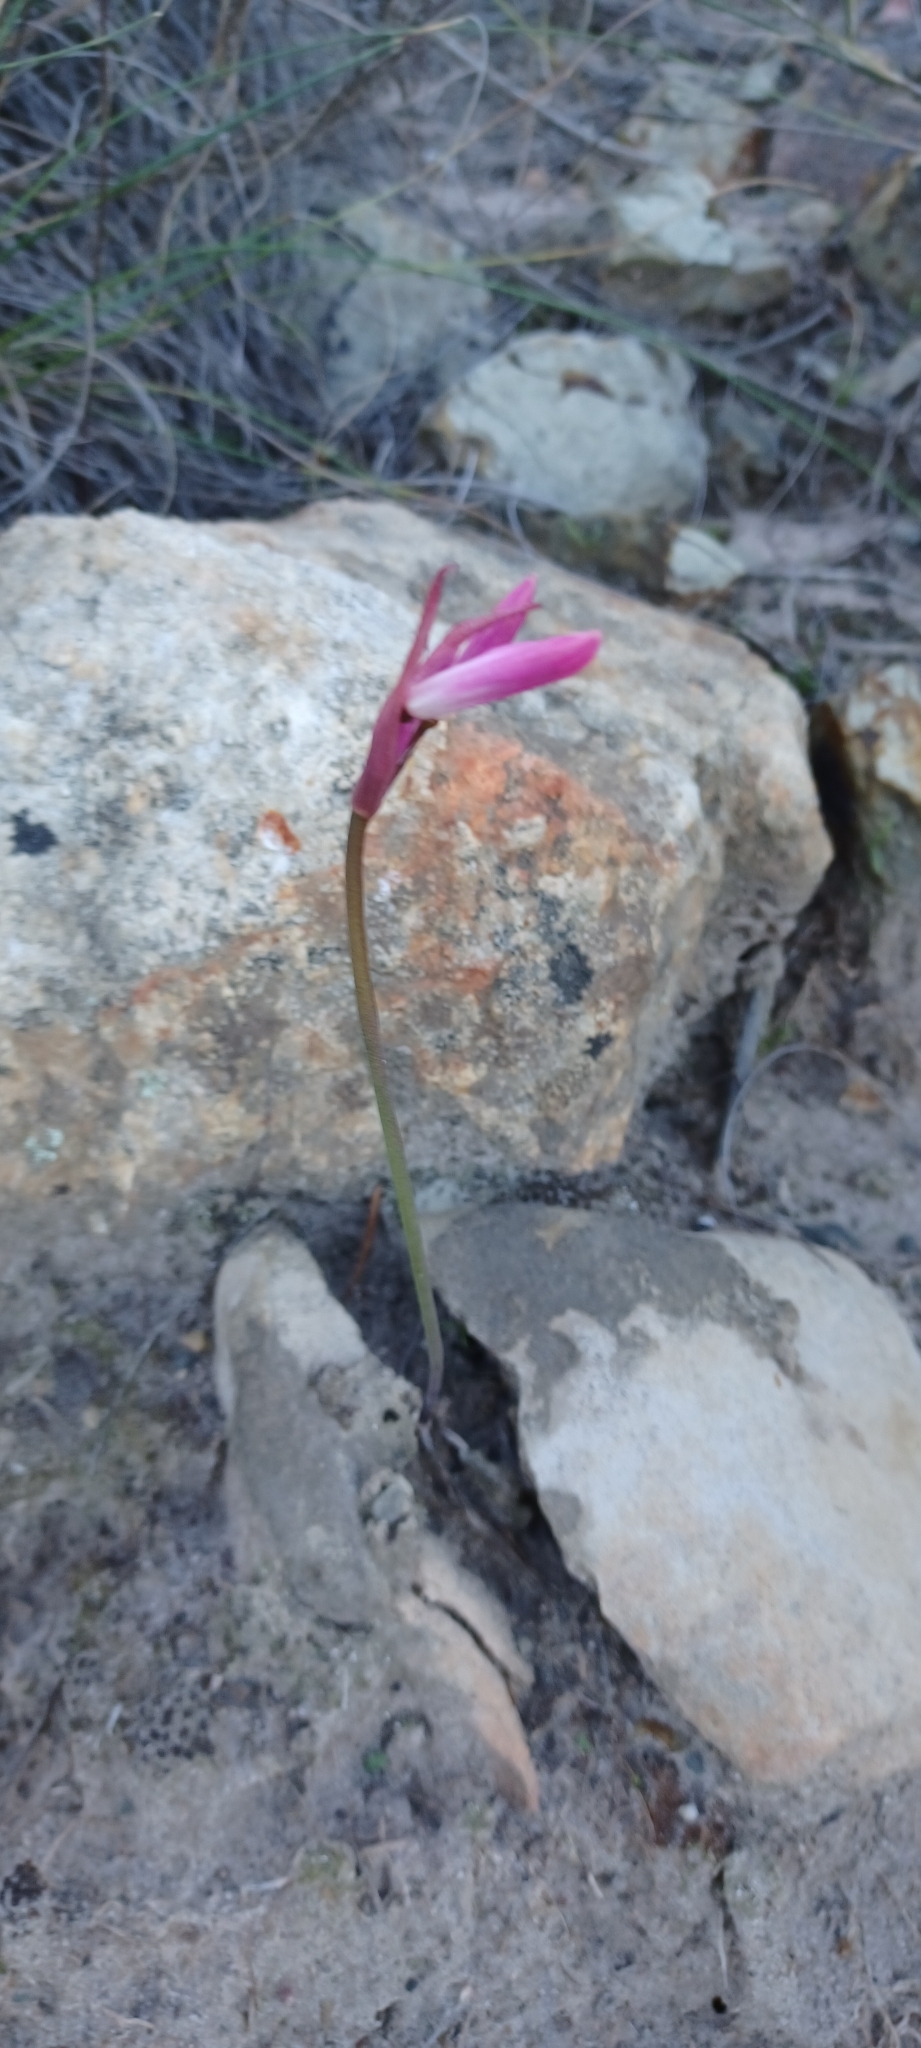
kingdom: Plantae
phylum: Tracheophyta
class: Liliopsida
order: Asparagales
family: Amaryllidaceae
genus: Nerine
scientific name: Nerine humilis
